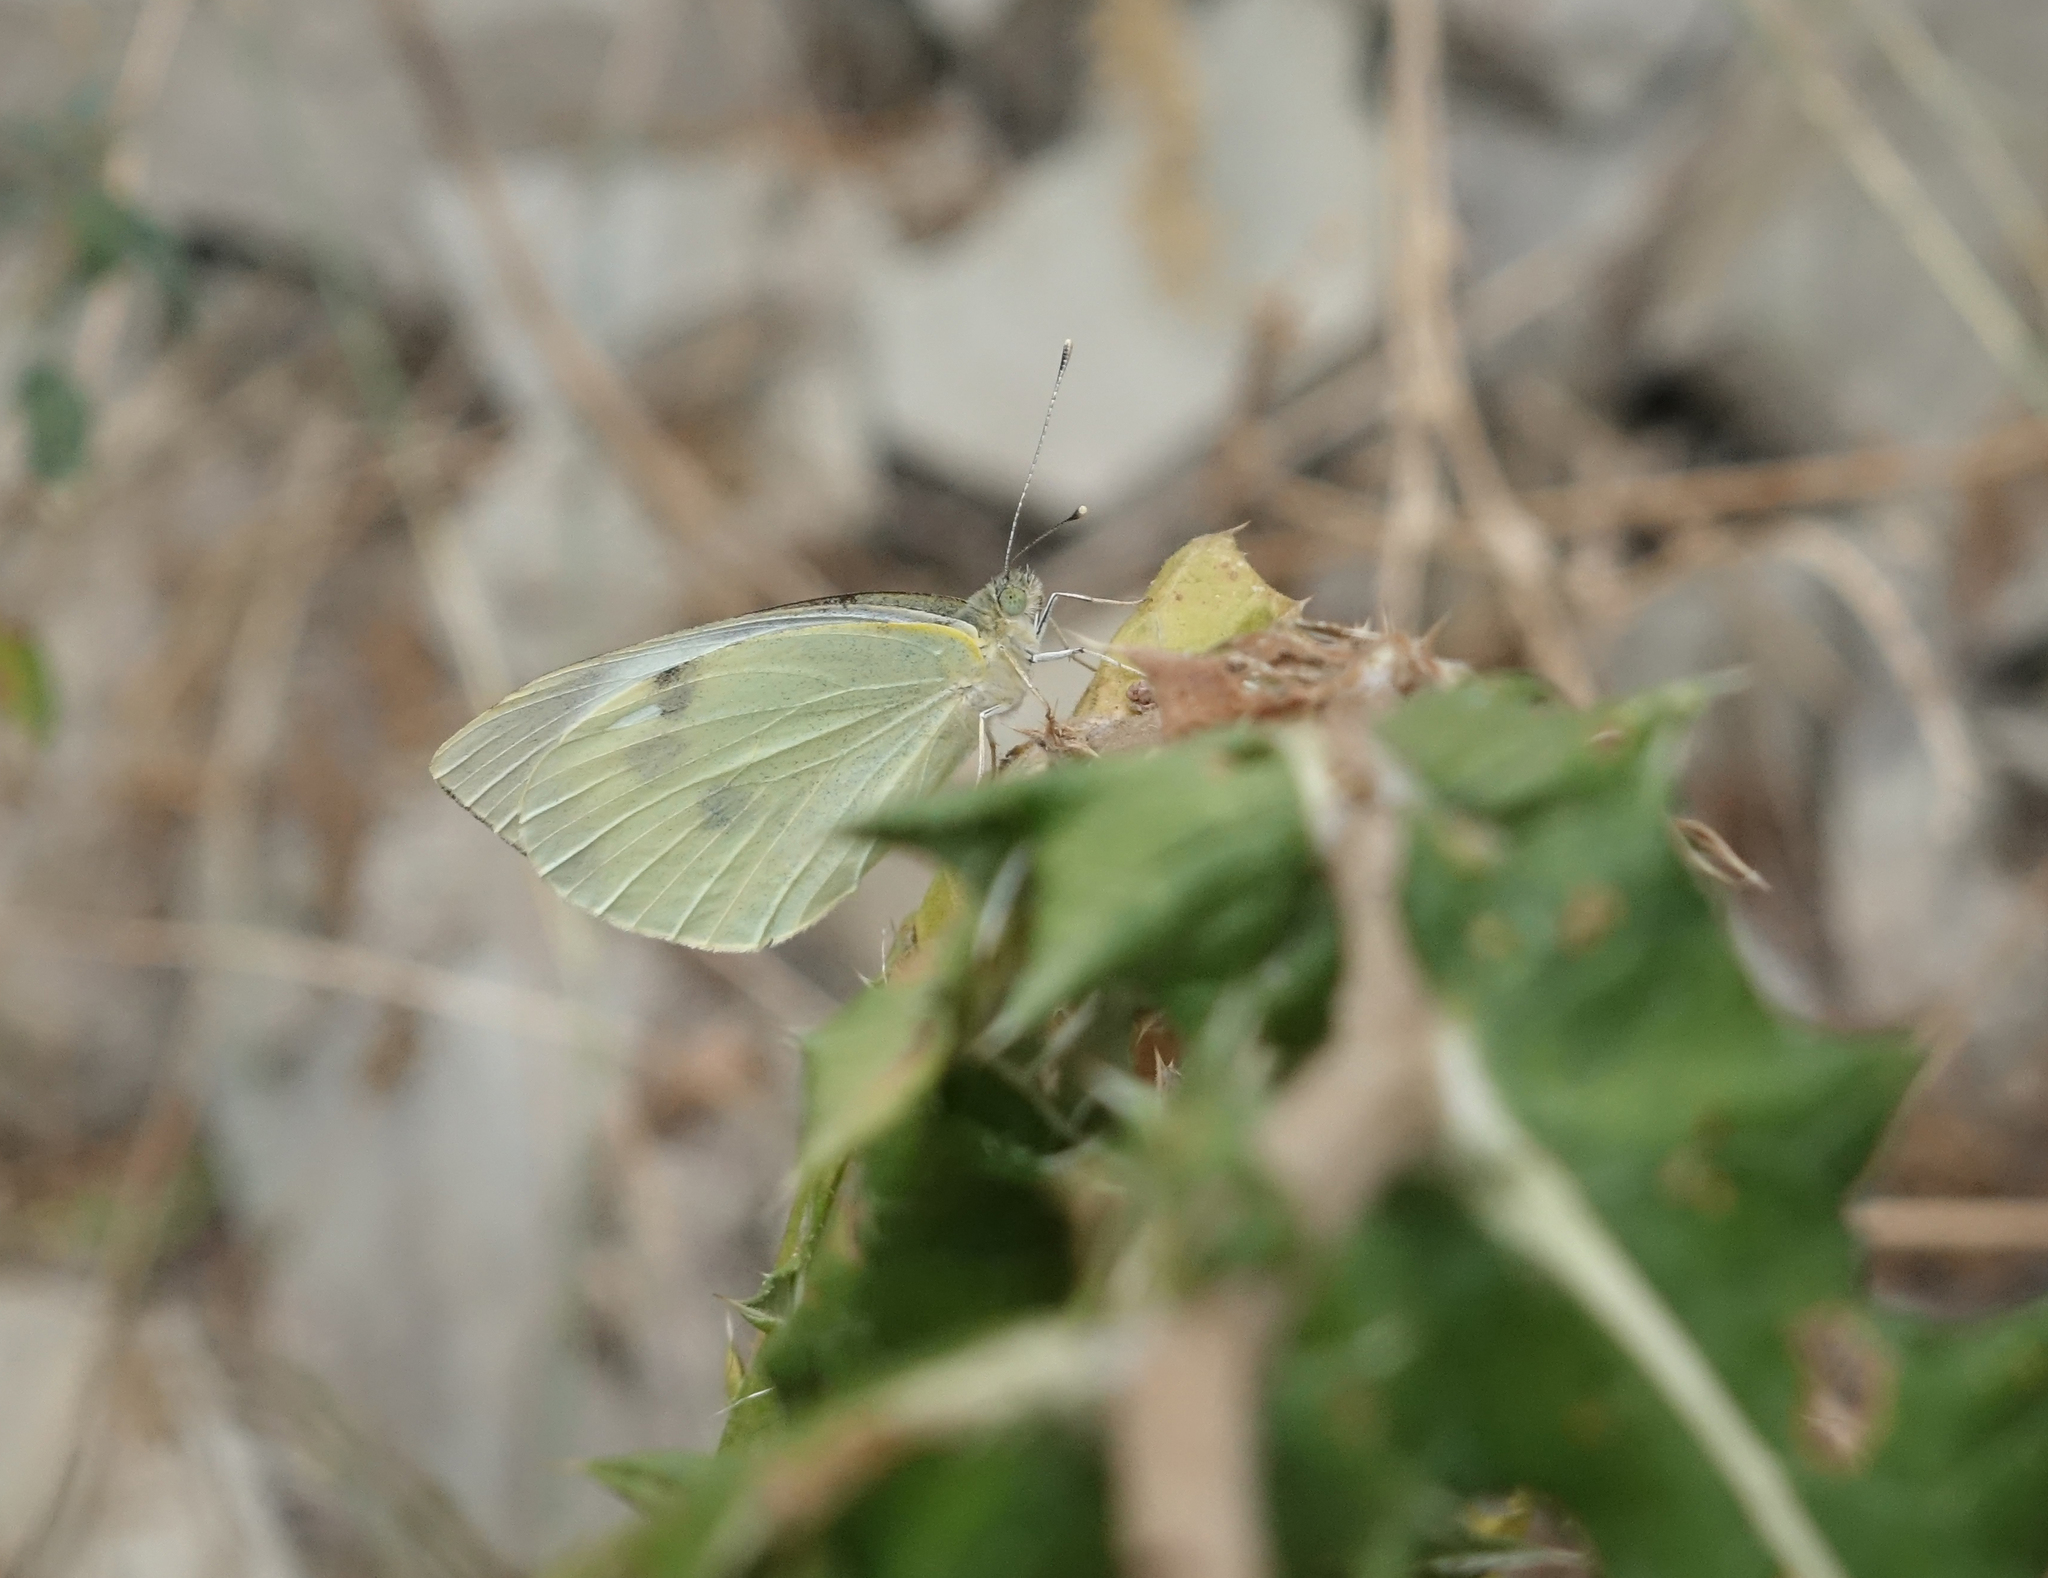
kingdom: Animalia
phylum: Arthropoda
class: Insecta
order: Lepidoptera
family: Pieridae
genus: Pieris
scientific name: Pieris brassicae
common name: Large white
